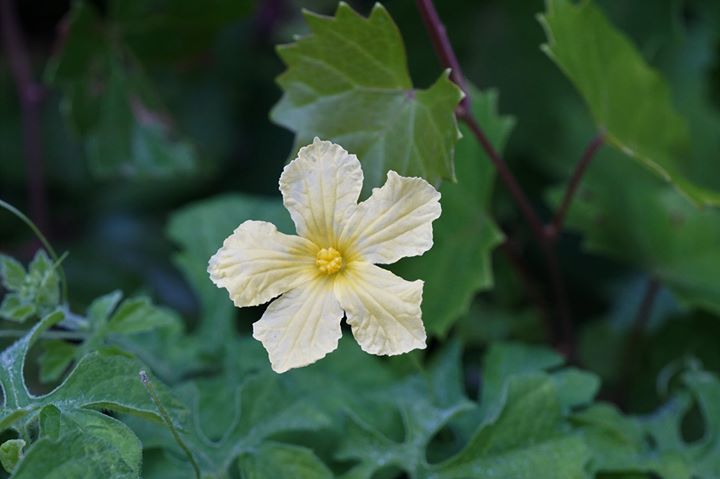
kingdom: Plantae
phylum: Tracheophyta
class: Magnoliopsida
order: Cucurbitales
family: Cucurbitaceae
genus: Momordica
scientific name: Momordica charantia
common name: Balsampear
